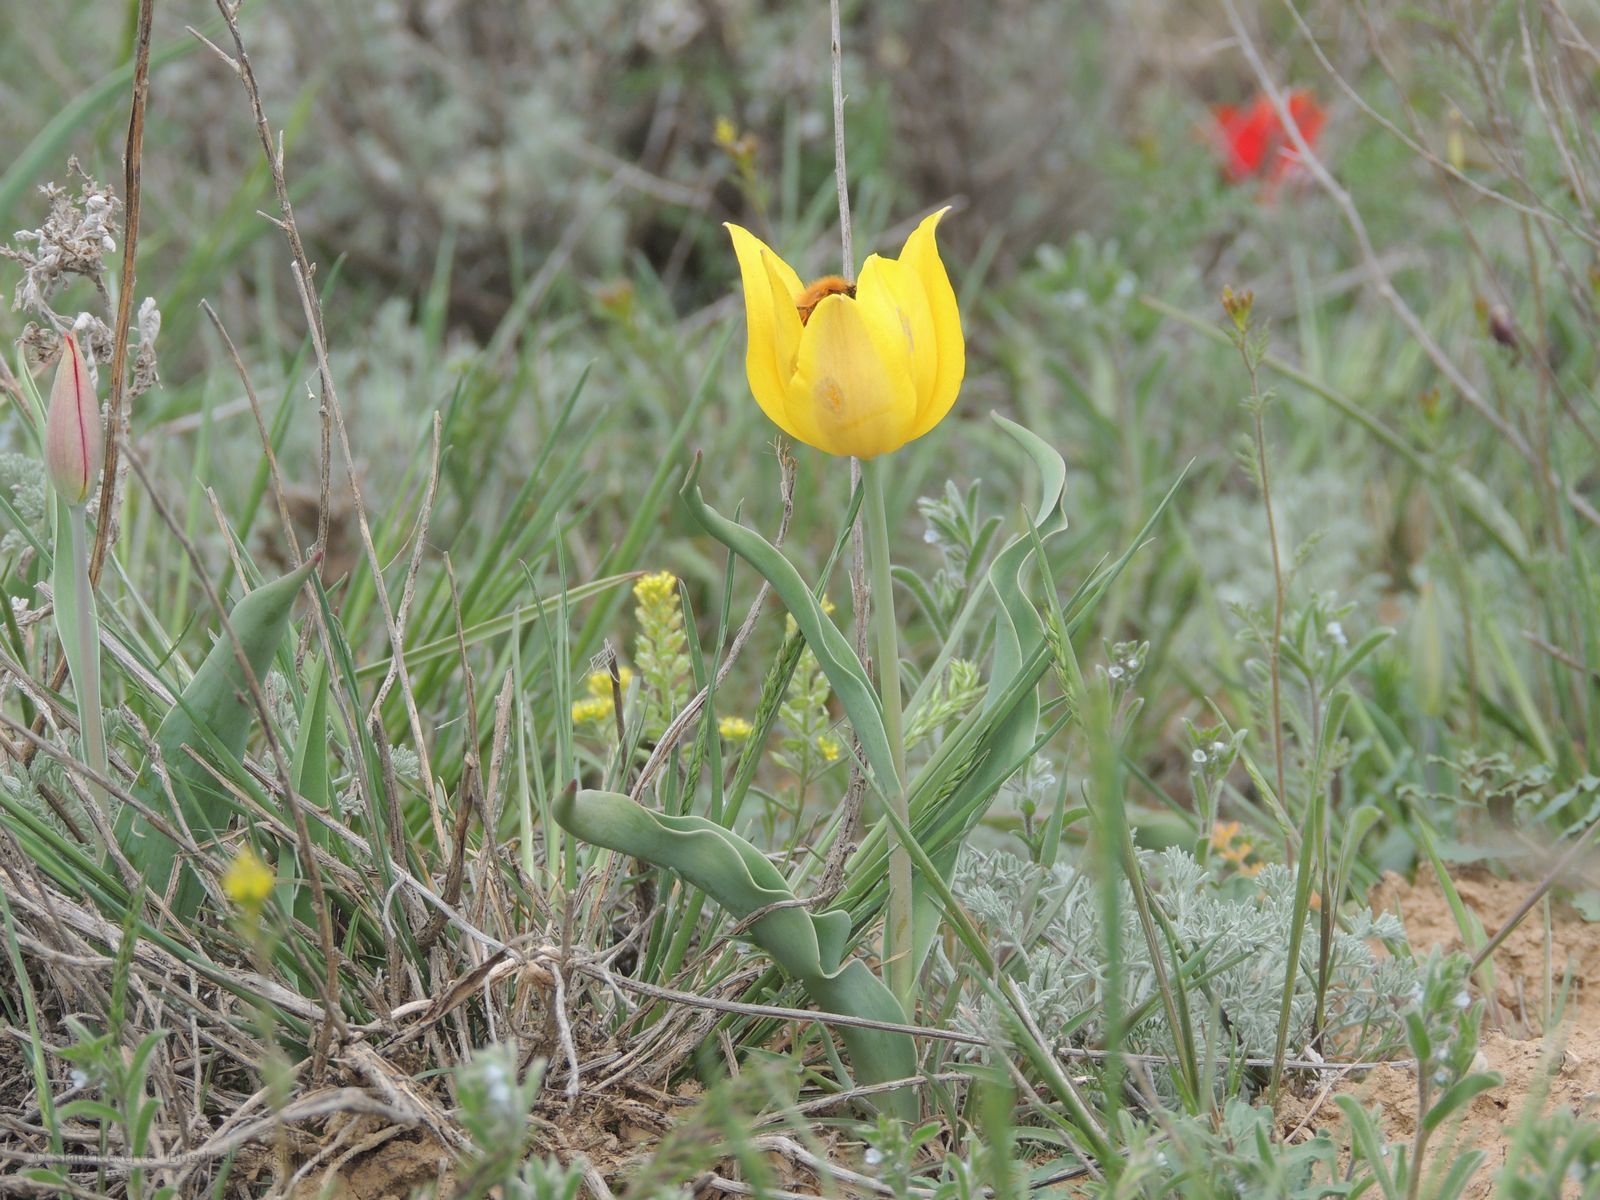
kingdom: Plantae
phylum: Tracheophyta
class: Liliopsida
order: Liliales
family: Liliaceae
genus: Tulipa
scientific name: Tulipa suaveolens
